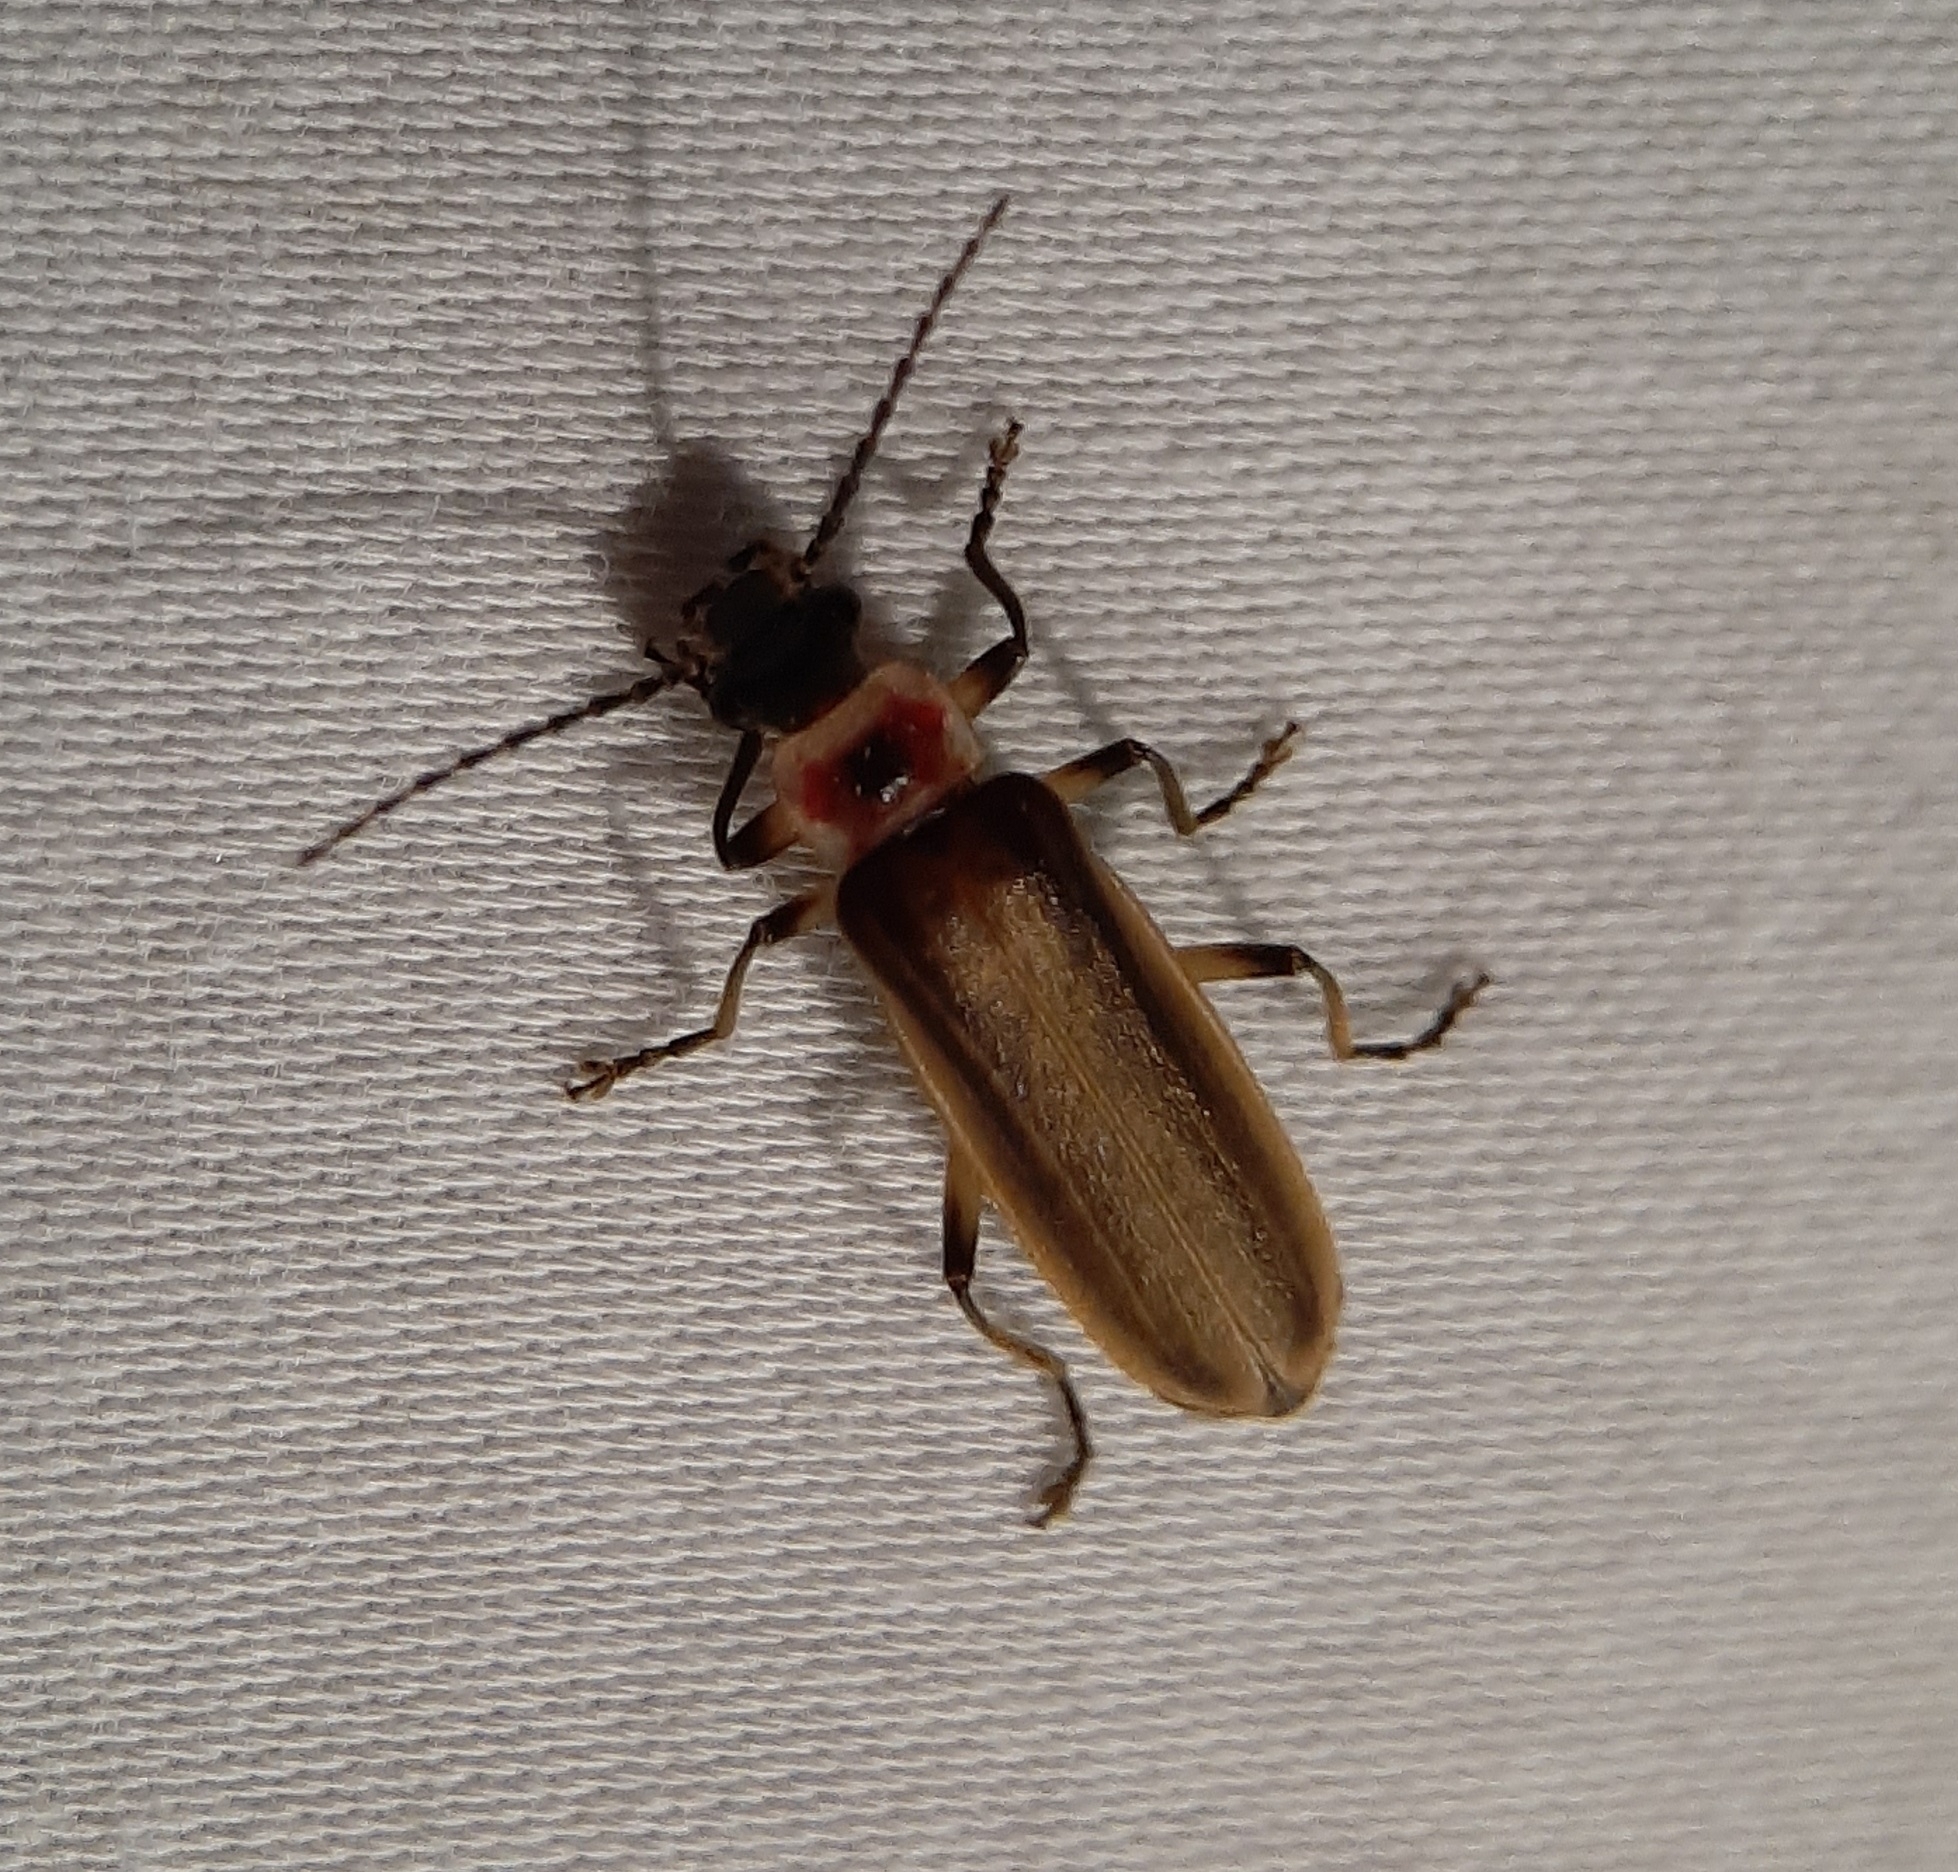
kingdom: Animalia
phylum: Arthropoda
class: Insecta
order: Coleoptera
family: Cantharidae
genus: Podabrus
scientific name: Podabrus appendiculatus
